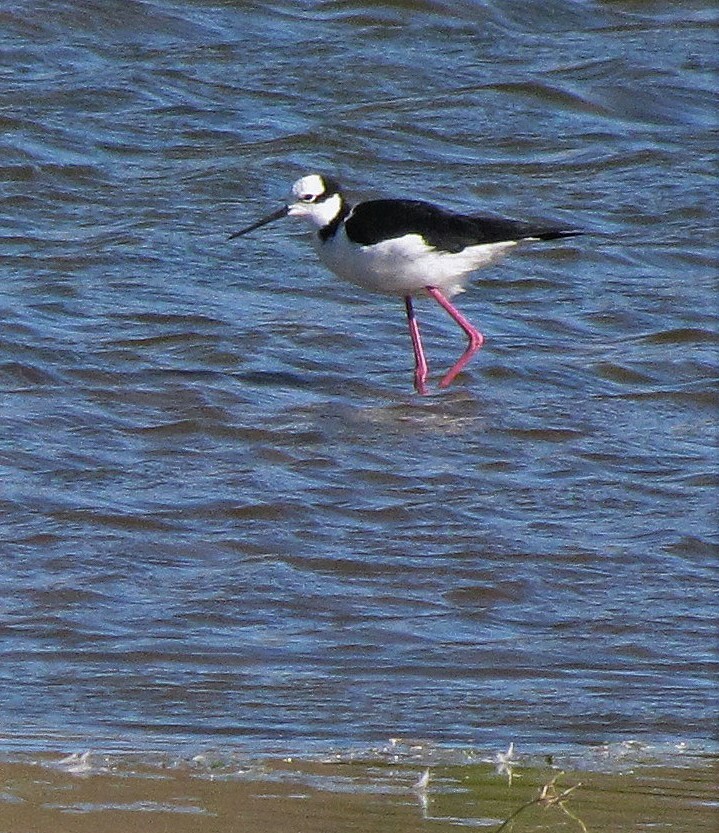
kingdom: Animalia
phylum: Chordata
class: Aves
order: Charadriiformes
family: Recurvirostridae
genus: Himantopus
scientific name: Himantopus mexicanus
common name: Black-necked stilt
